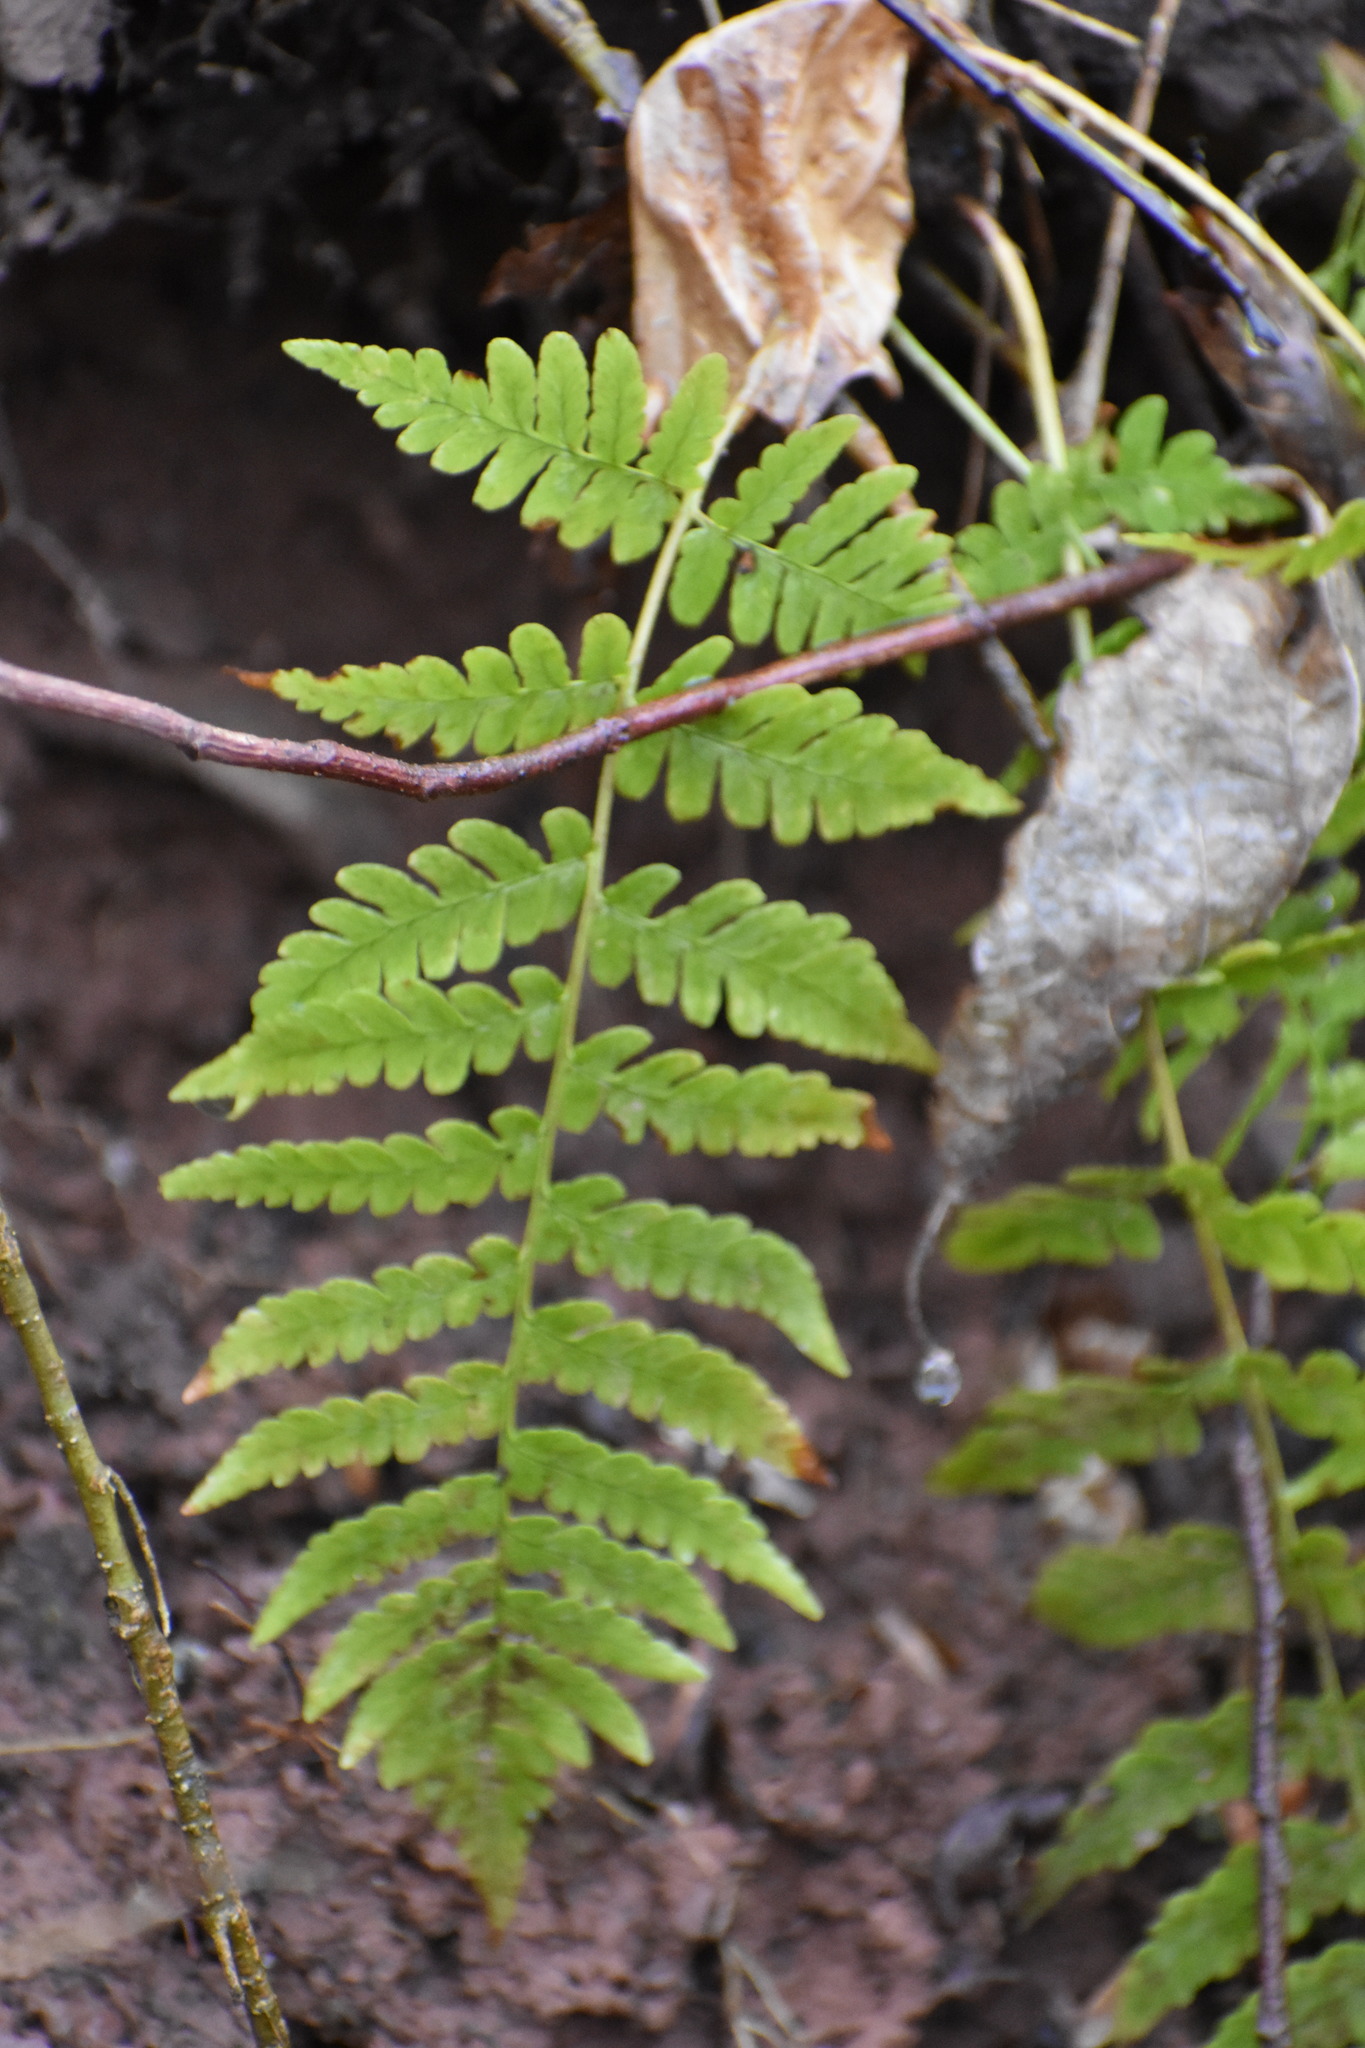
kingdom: Plantae
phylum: Tracheophyta
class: Polypodiopsida
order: Polypodiales
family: Dryopteridaceae
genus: Dryopteris
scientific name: Dryopteris marginalis
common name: Marginal wood fern
